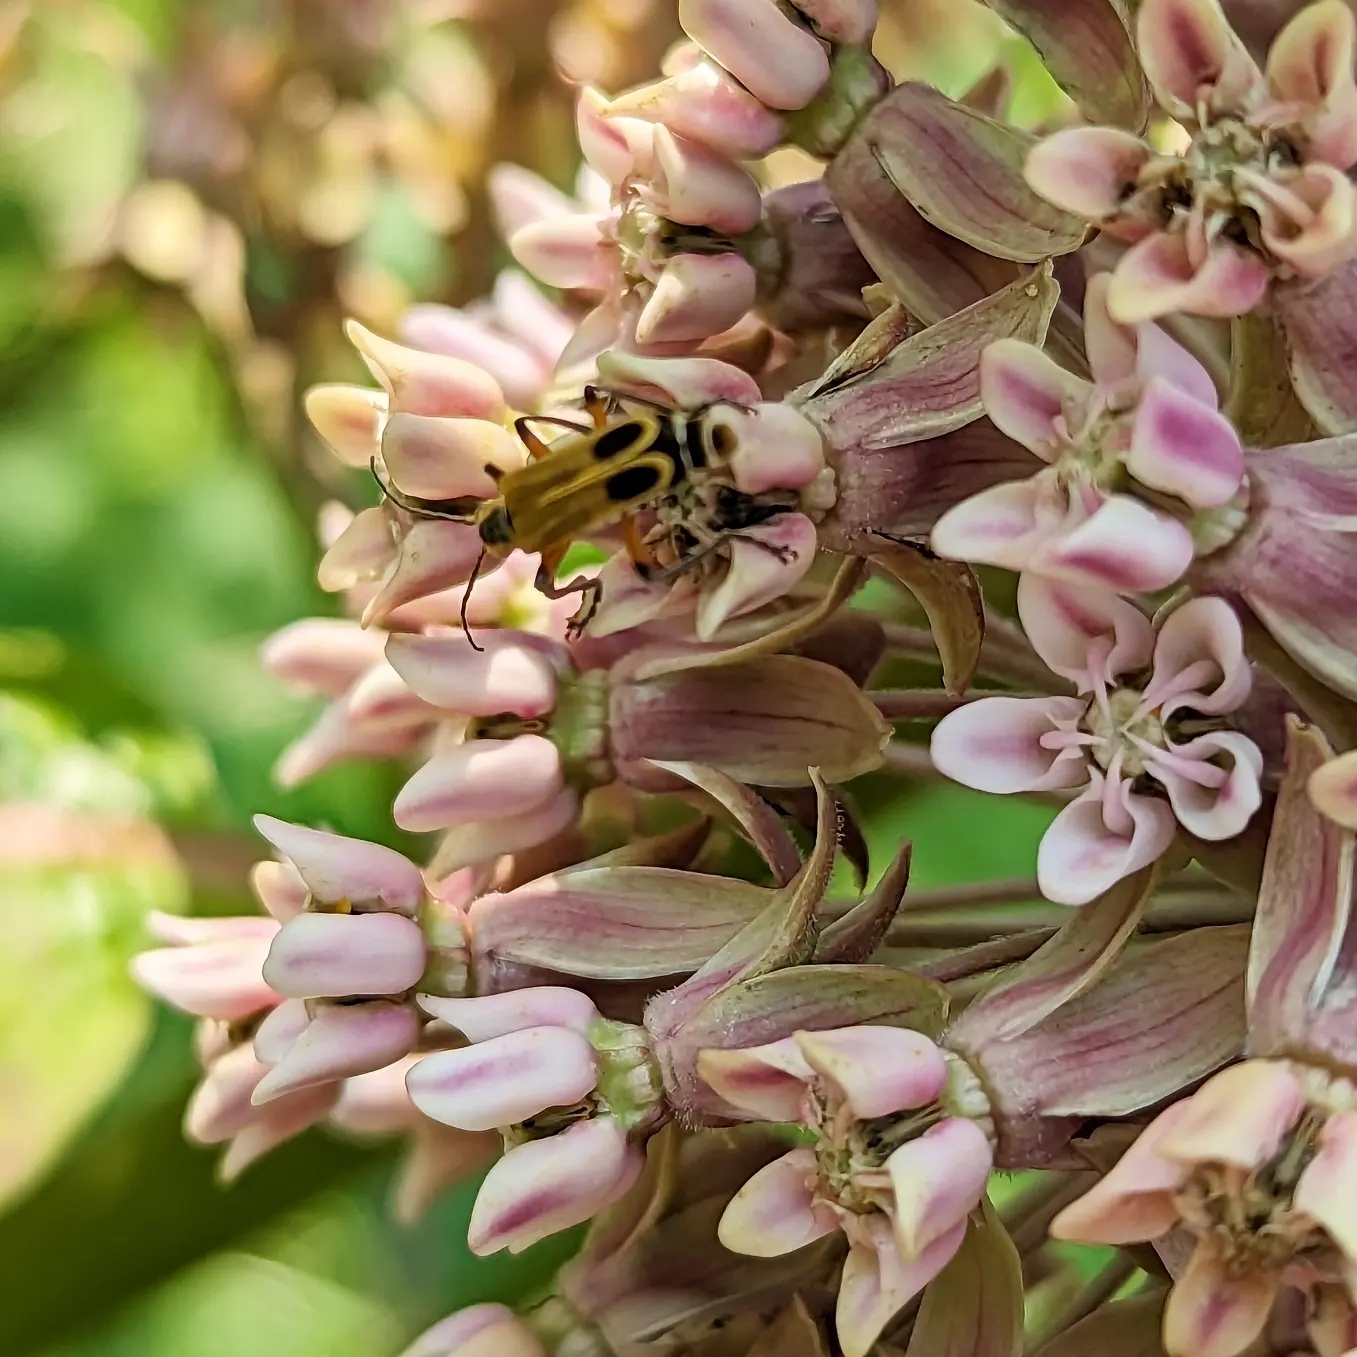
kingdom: Animalia
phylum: Arthropoda
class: Insecta
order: Coleoptera
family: Cantharidae
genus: Chauliognathus
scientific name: Chauliognathus marginatus
